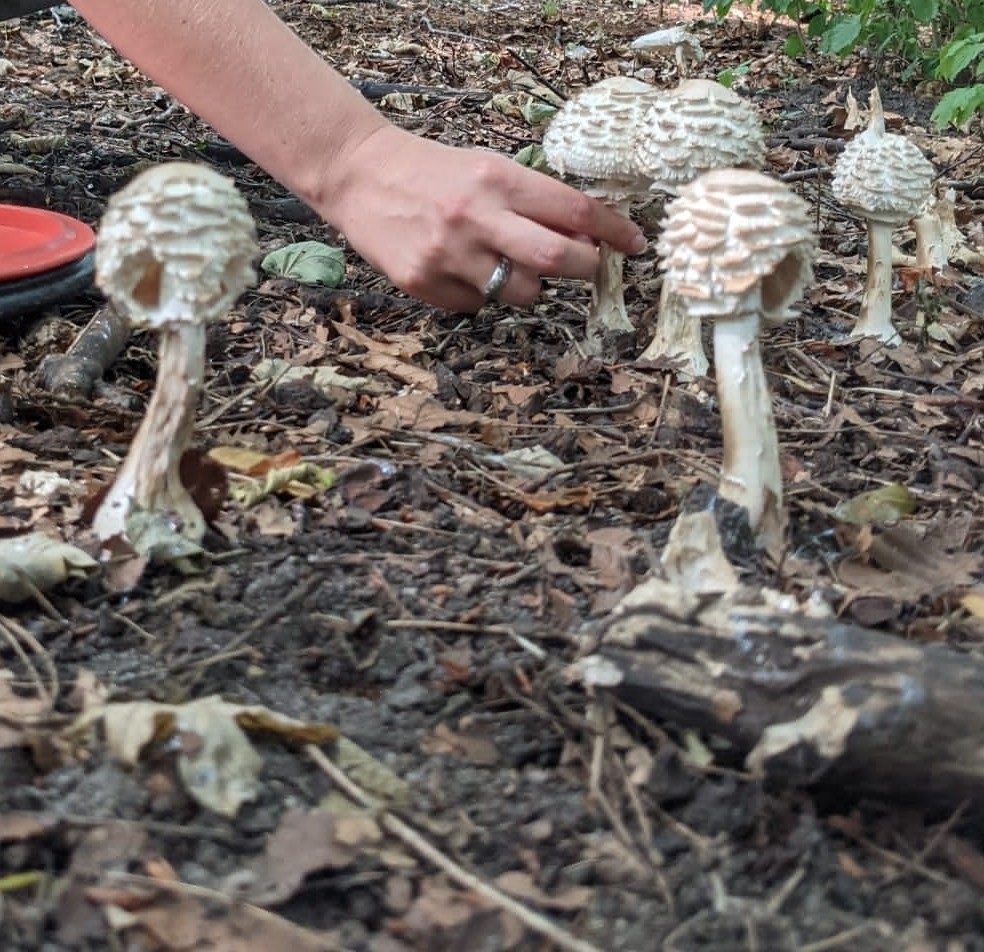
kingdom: Fungi
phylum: Basidiomycota
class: Agaricomycetes
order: Agaricales
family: Agaricaceae
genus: Chlorophyllum
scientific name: Chlorophyllum rhacodes
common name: Shaggy parasol
